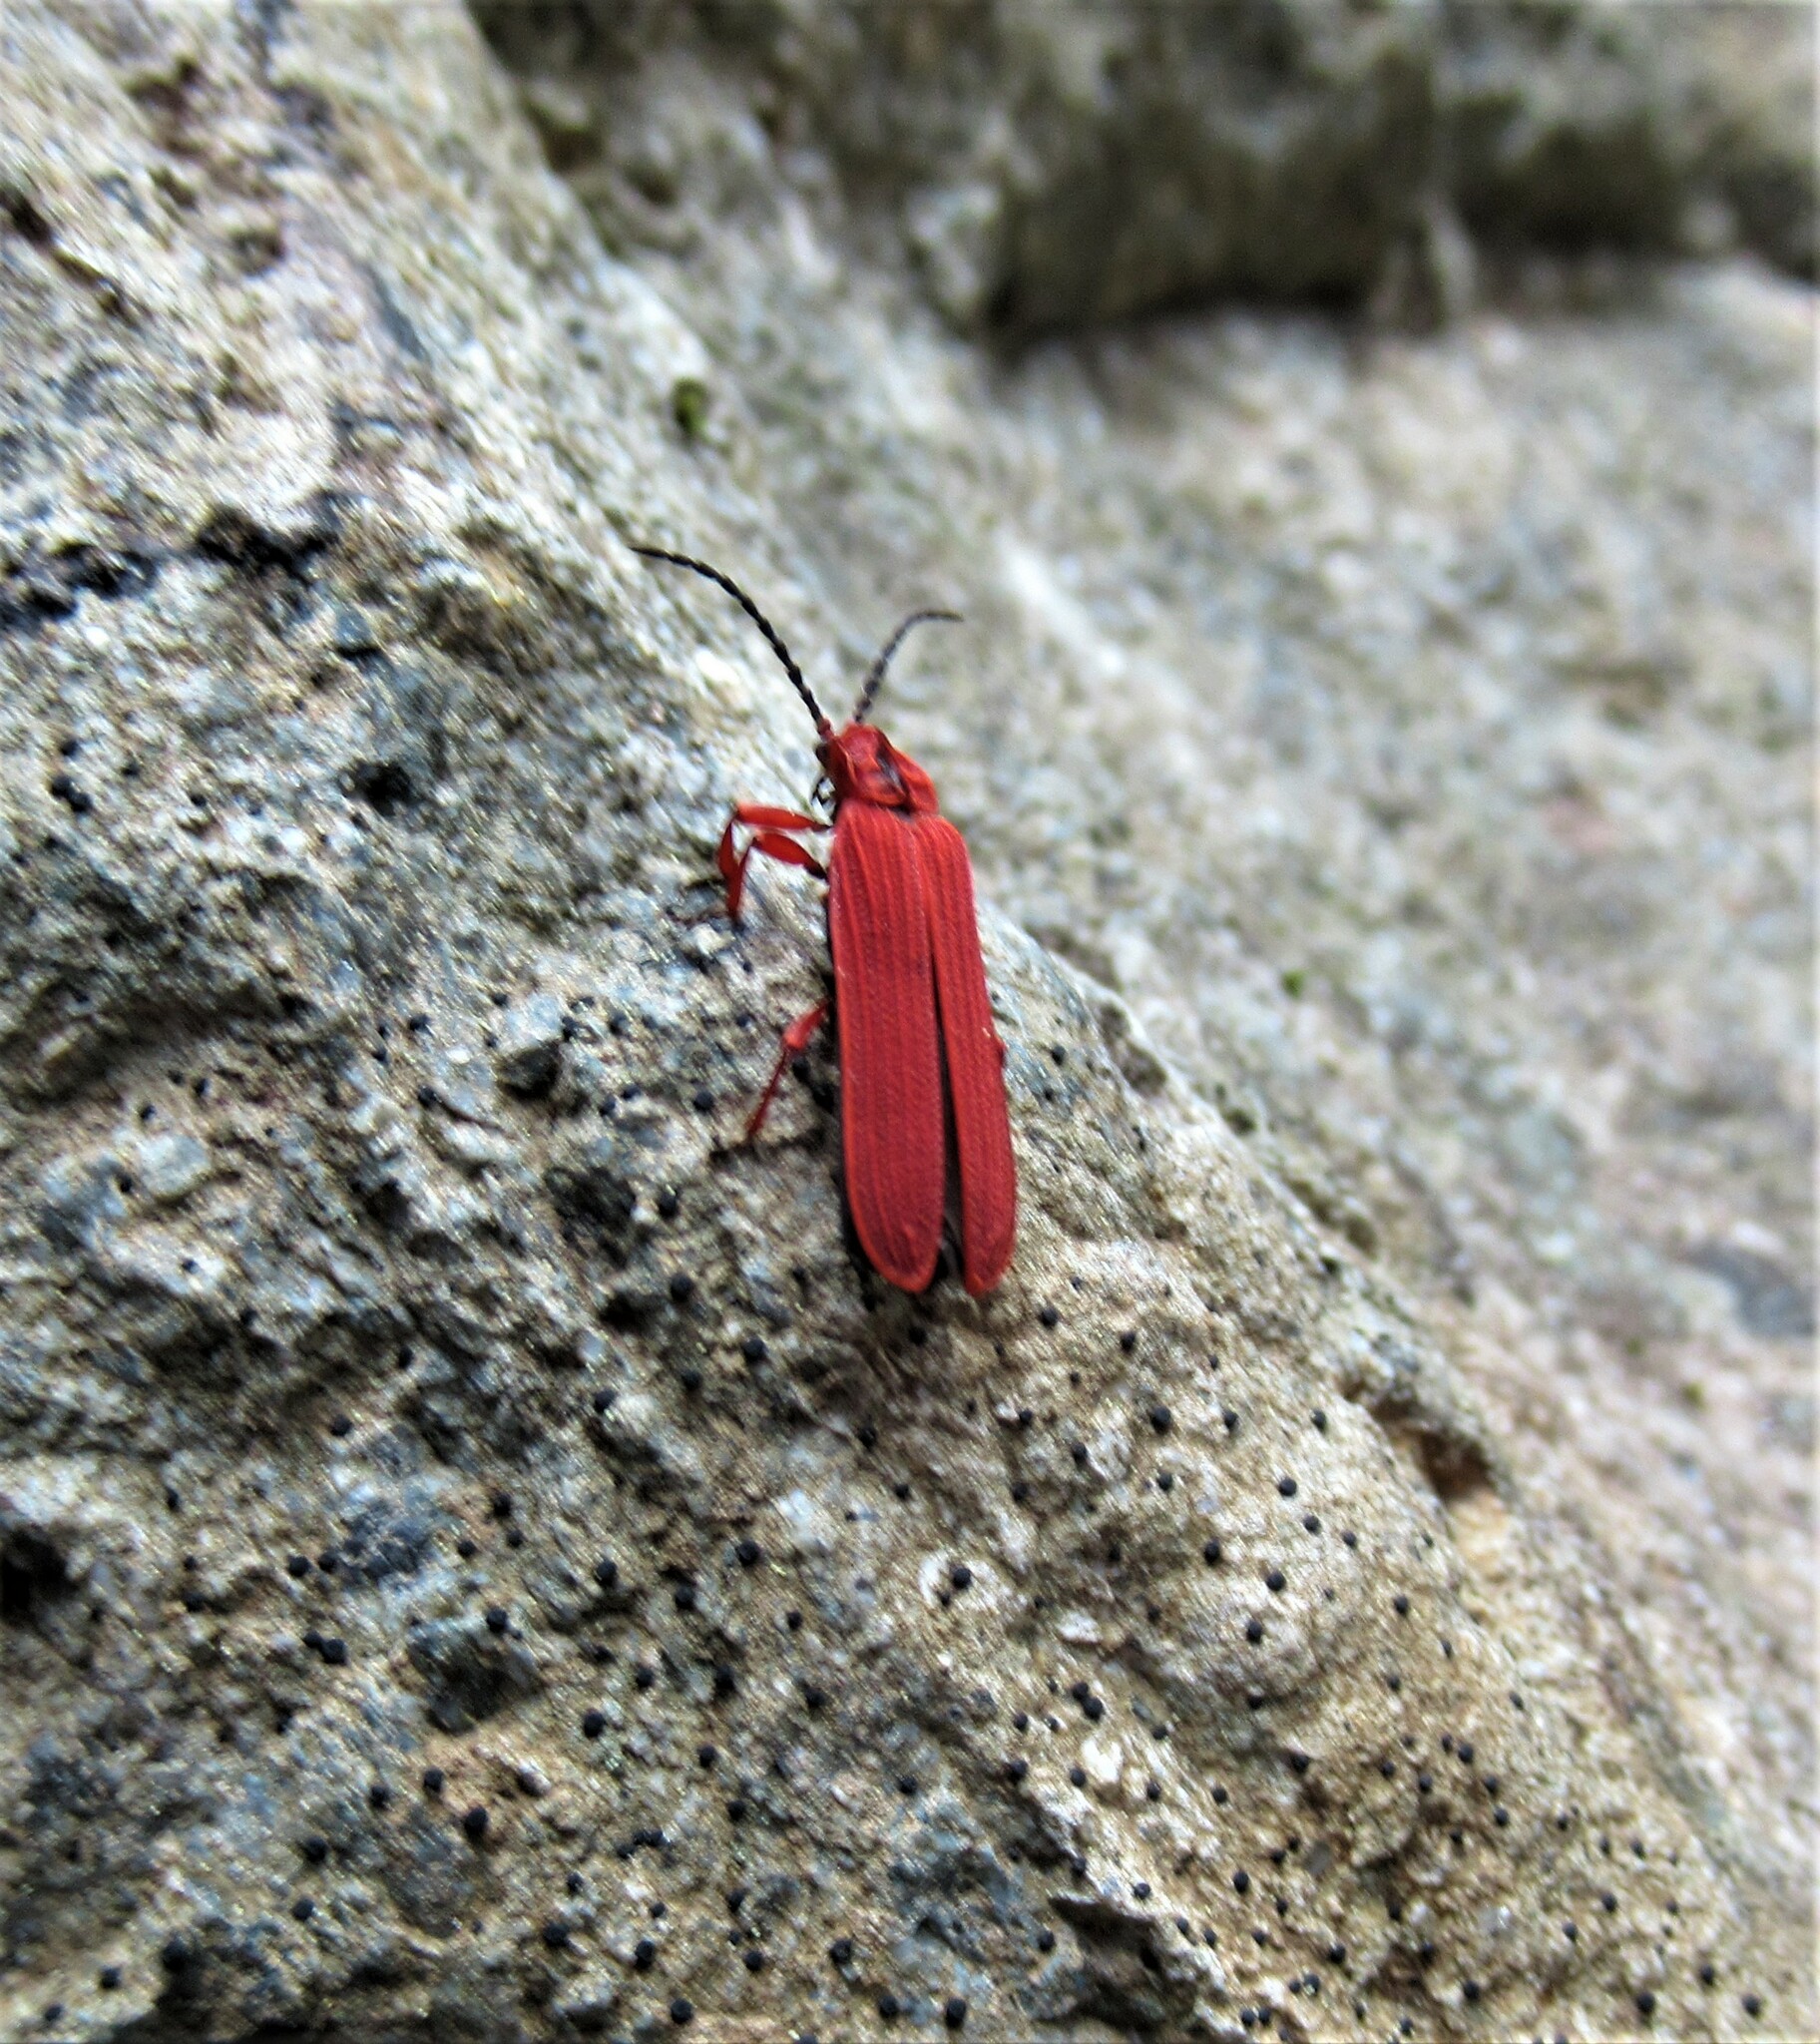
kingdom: Animalia
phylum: Arthropoda
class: Insecta
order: Coleoptera
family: Lycidae
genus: Dictyoptera
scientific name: Dictyoptera simplicipes
